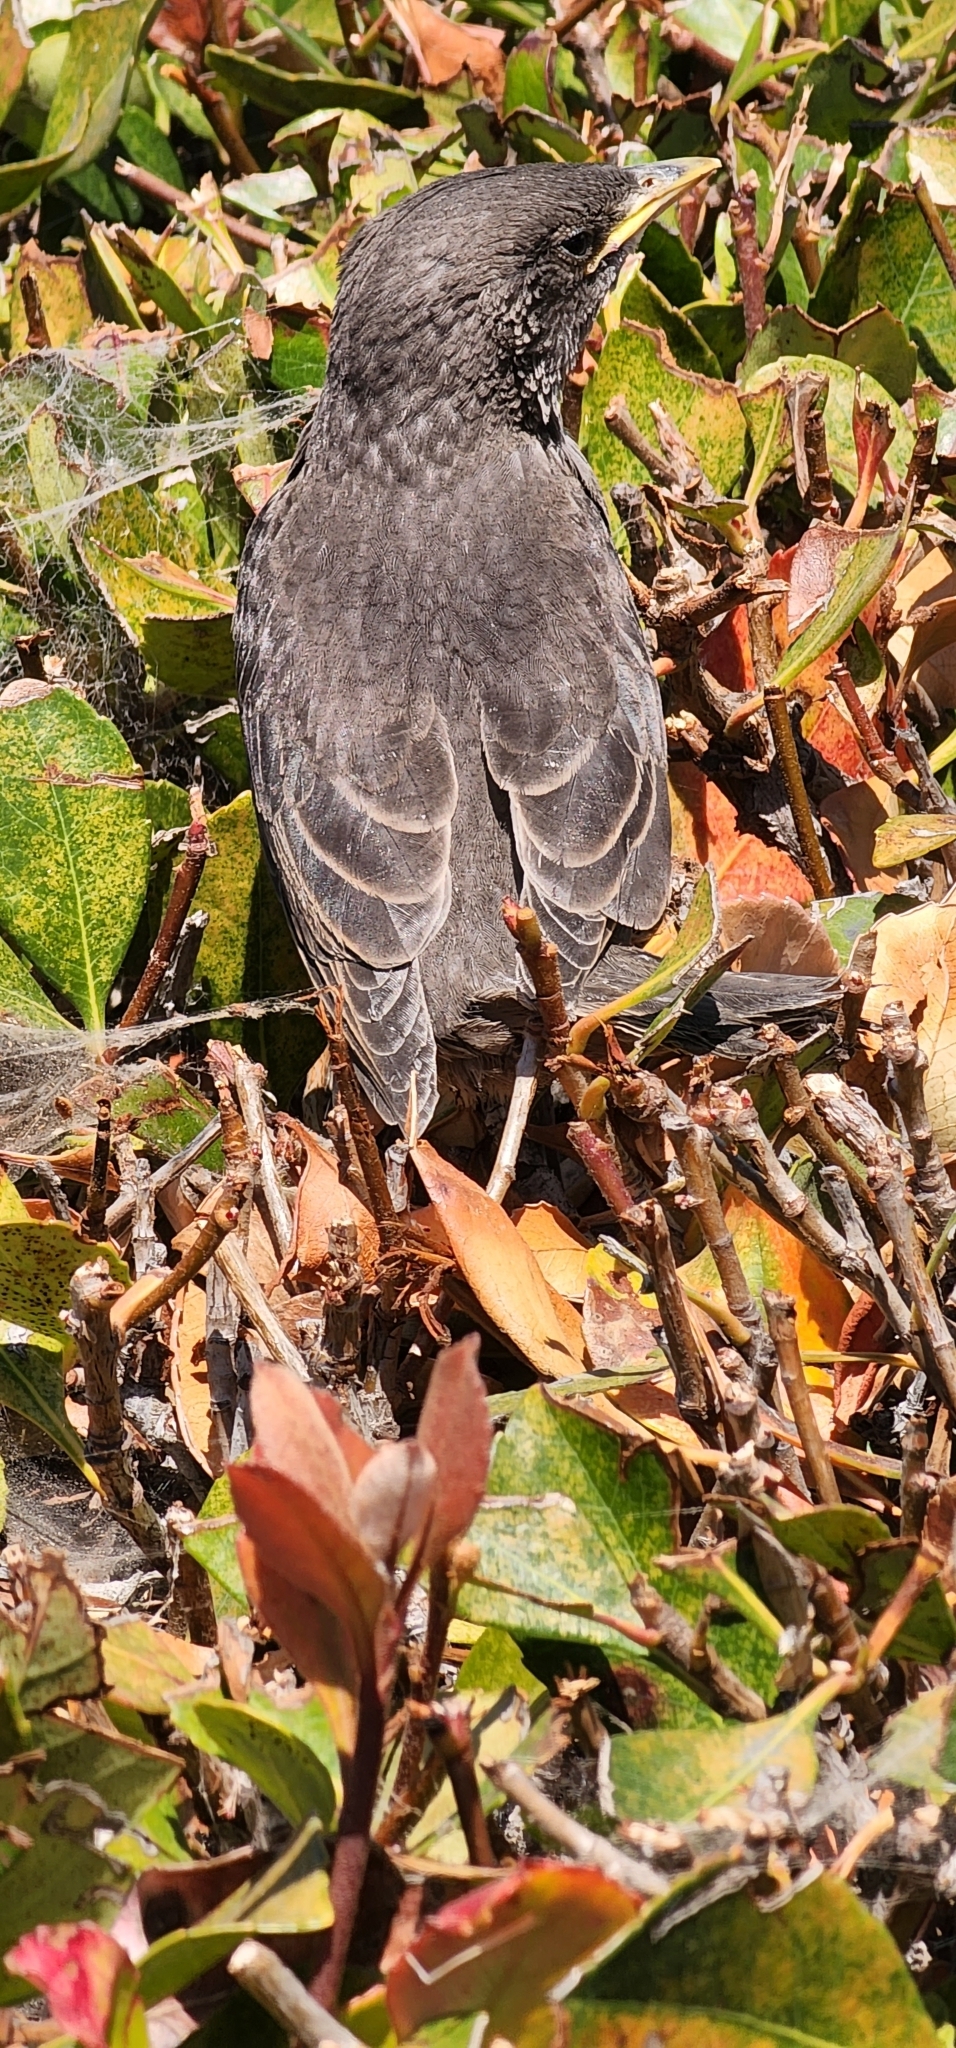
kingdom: Animalia
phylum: Chordata
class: Aves
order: Passeriformes
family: Turdidae
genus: Turdus
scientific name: Turdus migratorius
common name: American robin
